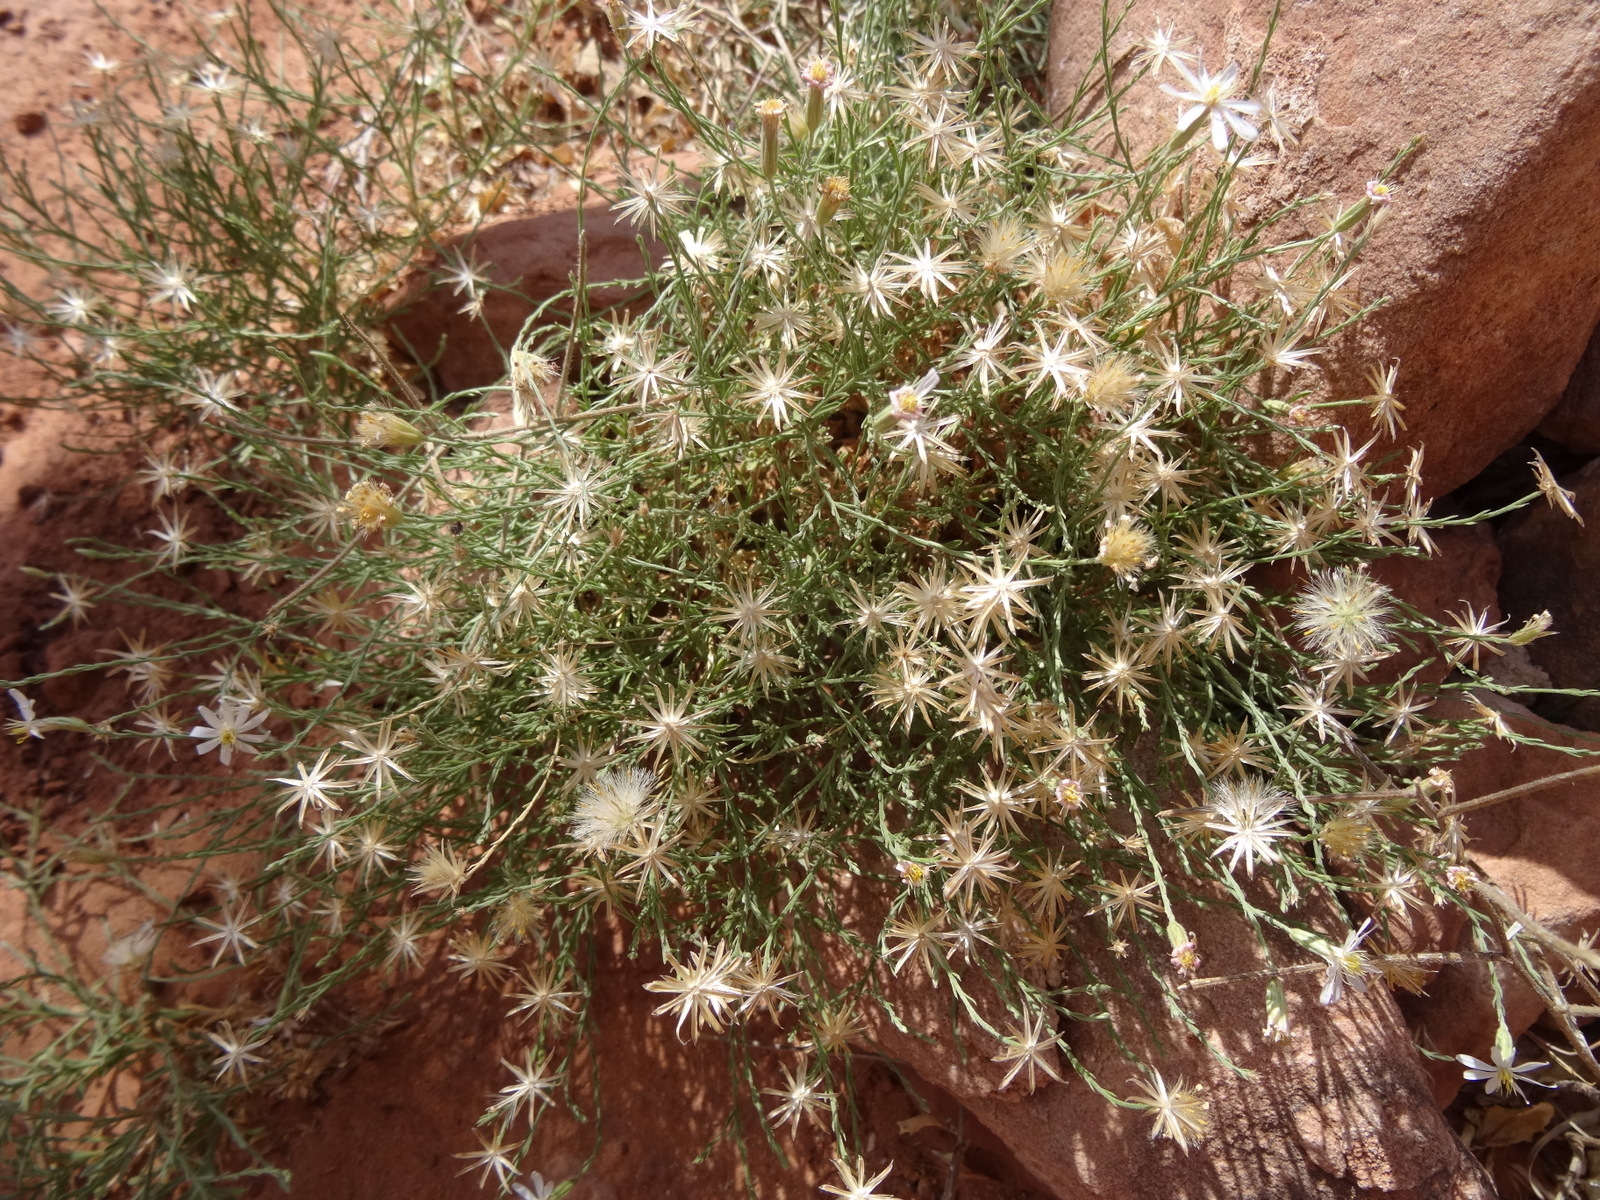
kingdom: Plantae
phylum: Tracheophyta
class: Magnoliopsida
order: Asterales
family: Asteraceae
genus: Chaetopappa
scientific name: Chaetopappa ericoides
